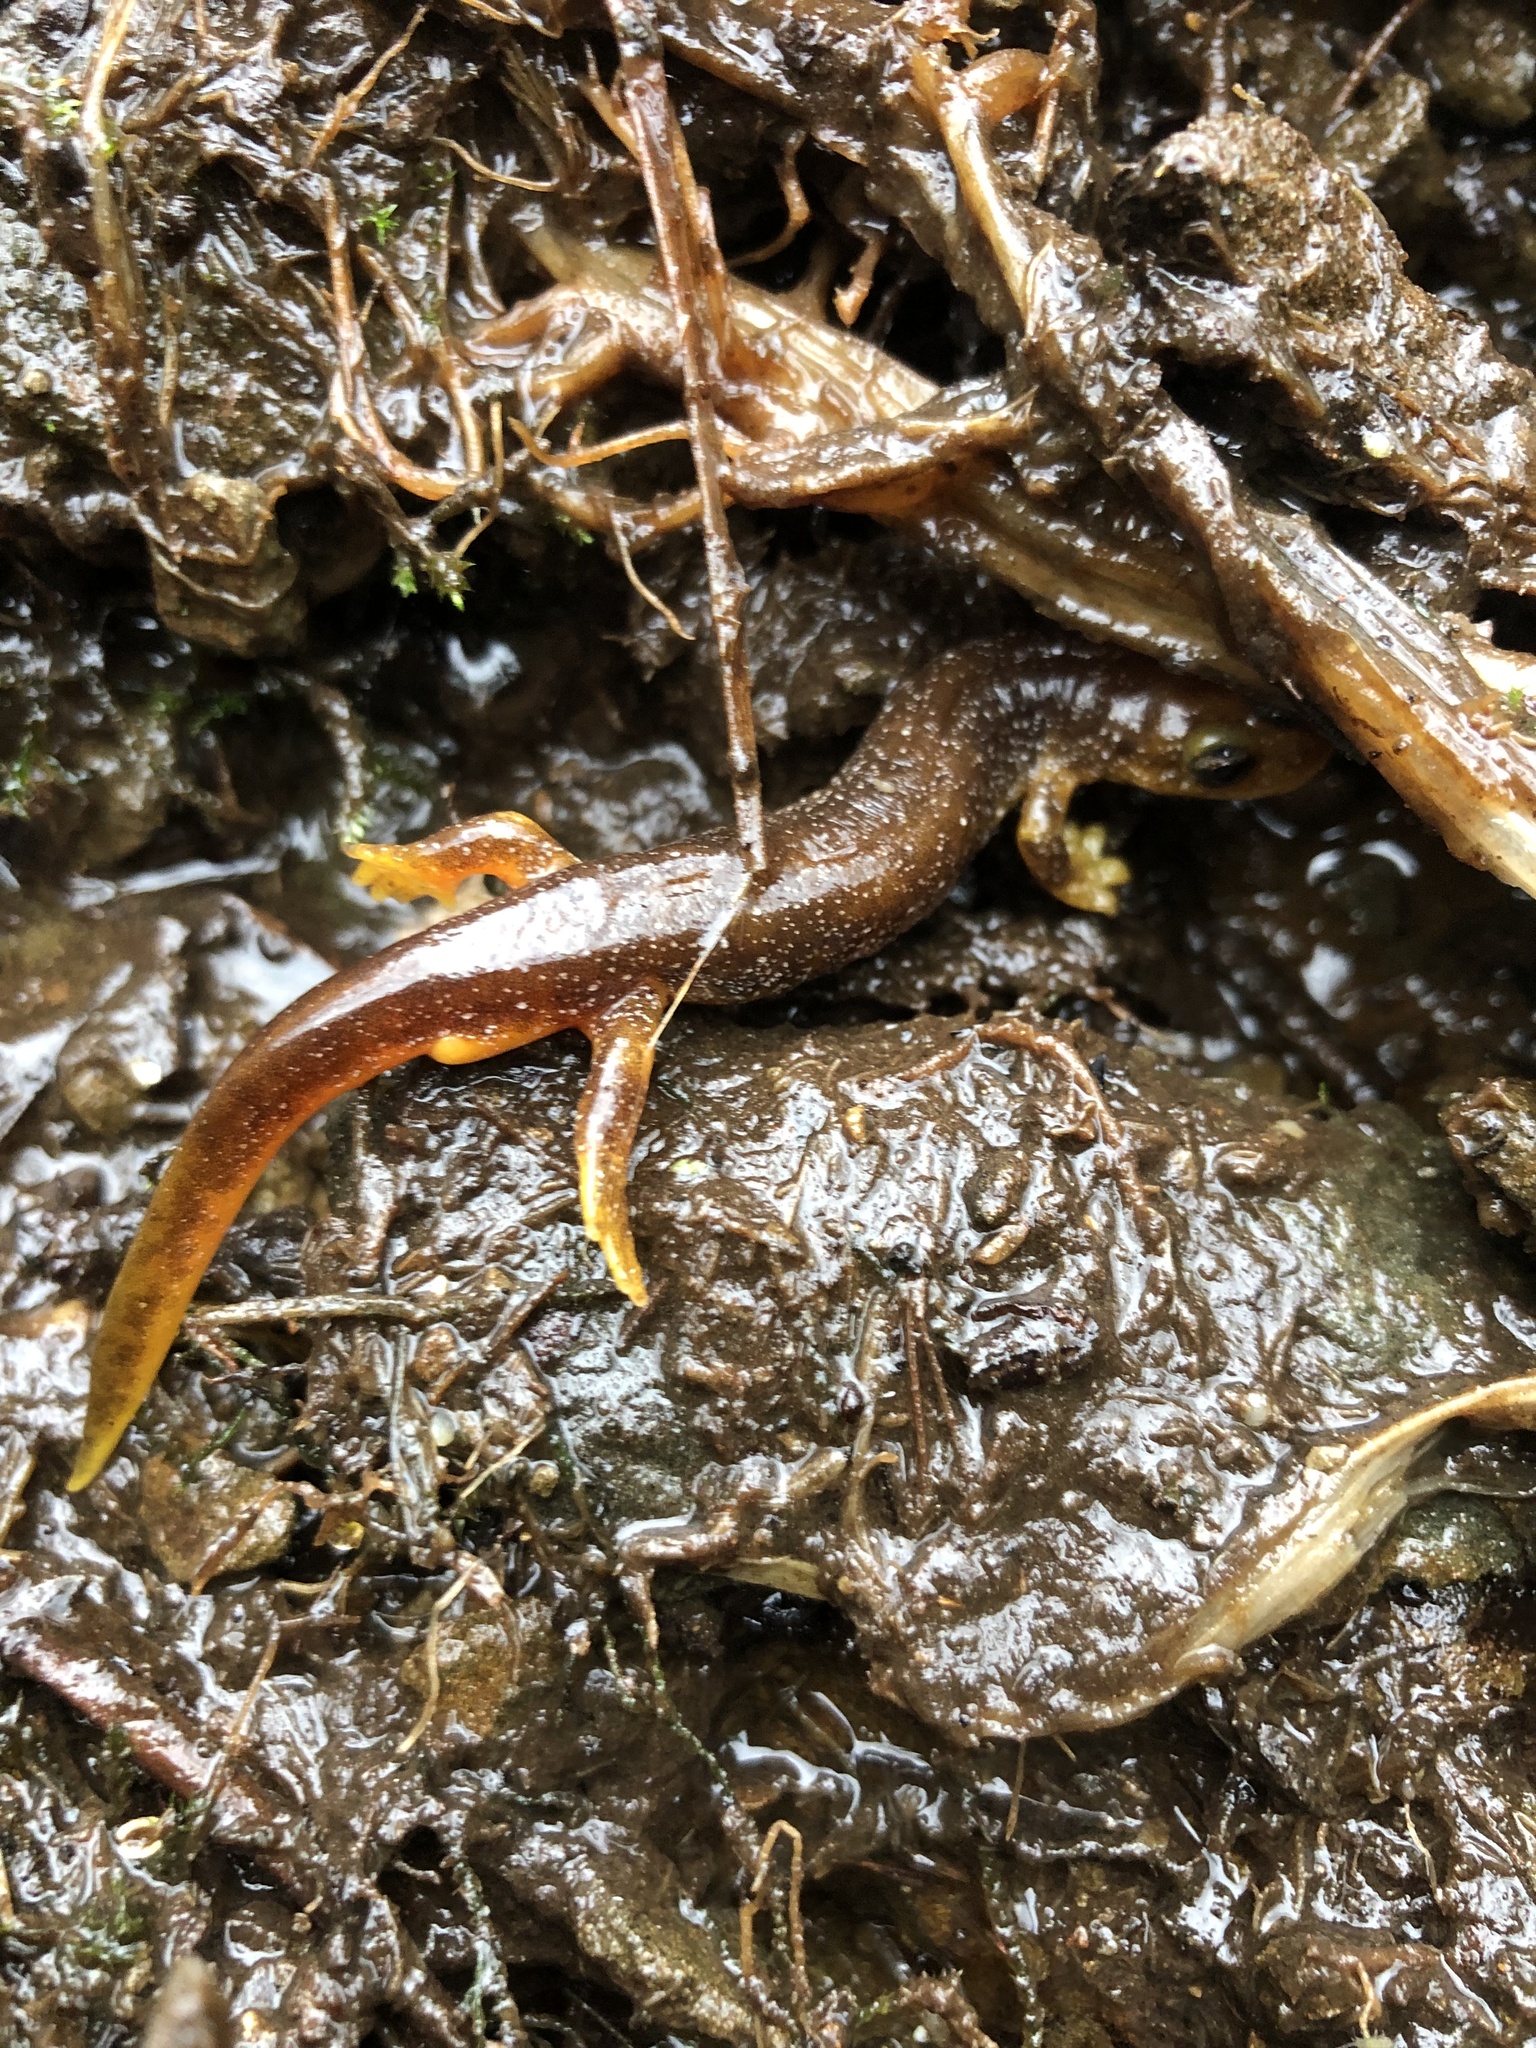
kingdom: Animalia
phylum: Chordata
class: Amphibia
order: Caudata
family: Rhyacotritonidae
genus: Rhyacotriton
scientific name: Rhyacotriton kezeri
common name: Columbia torrent salamander
